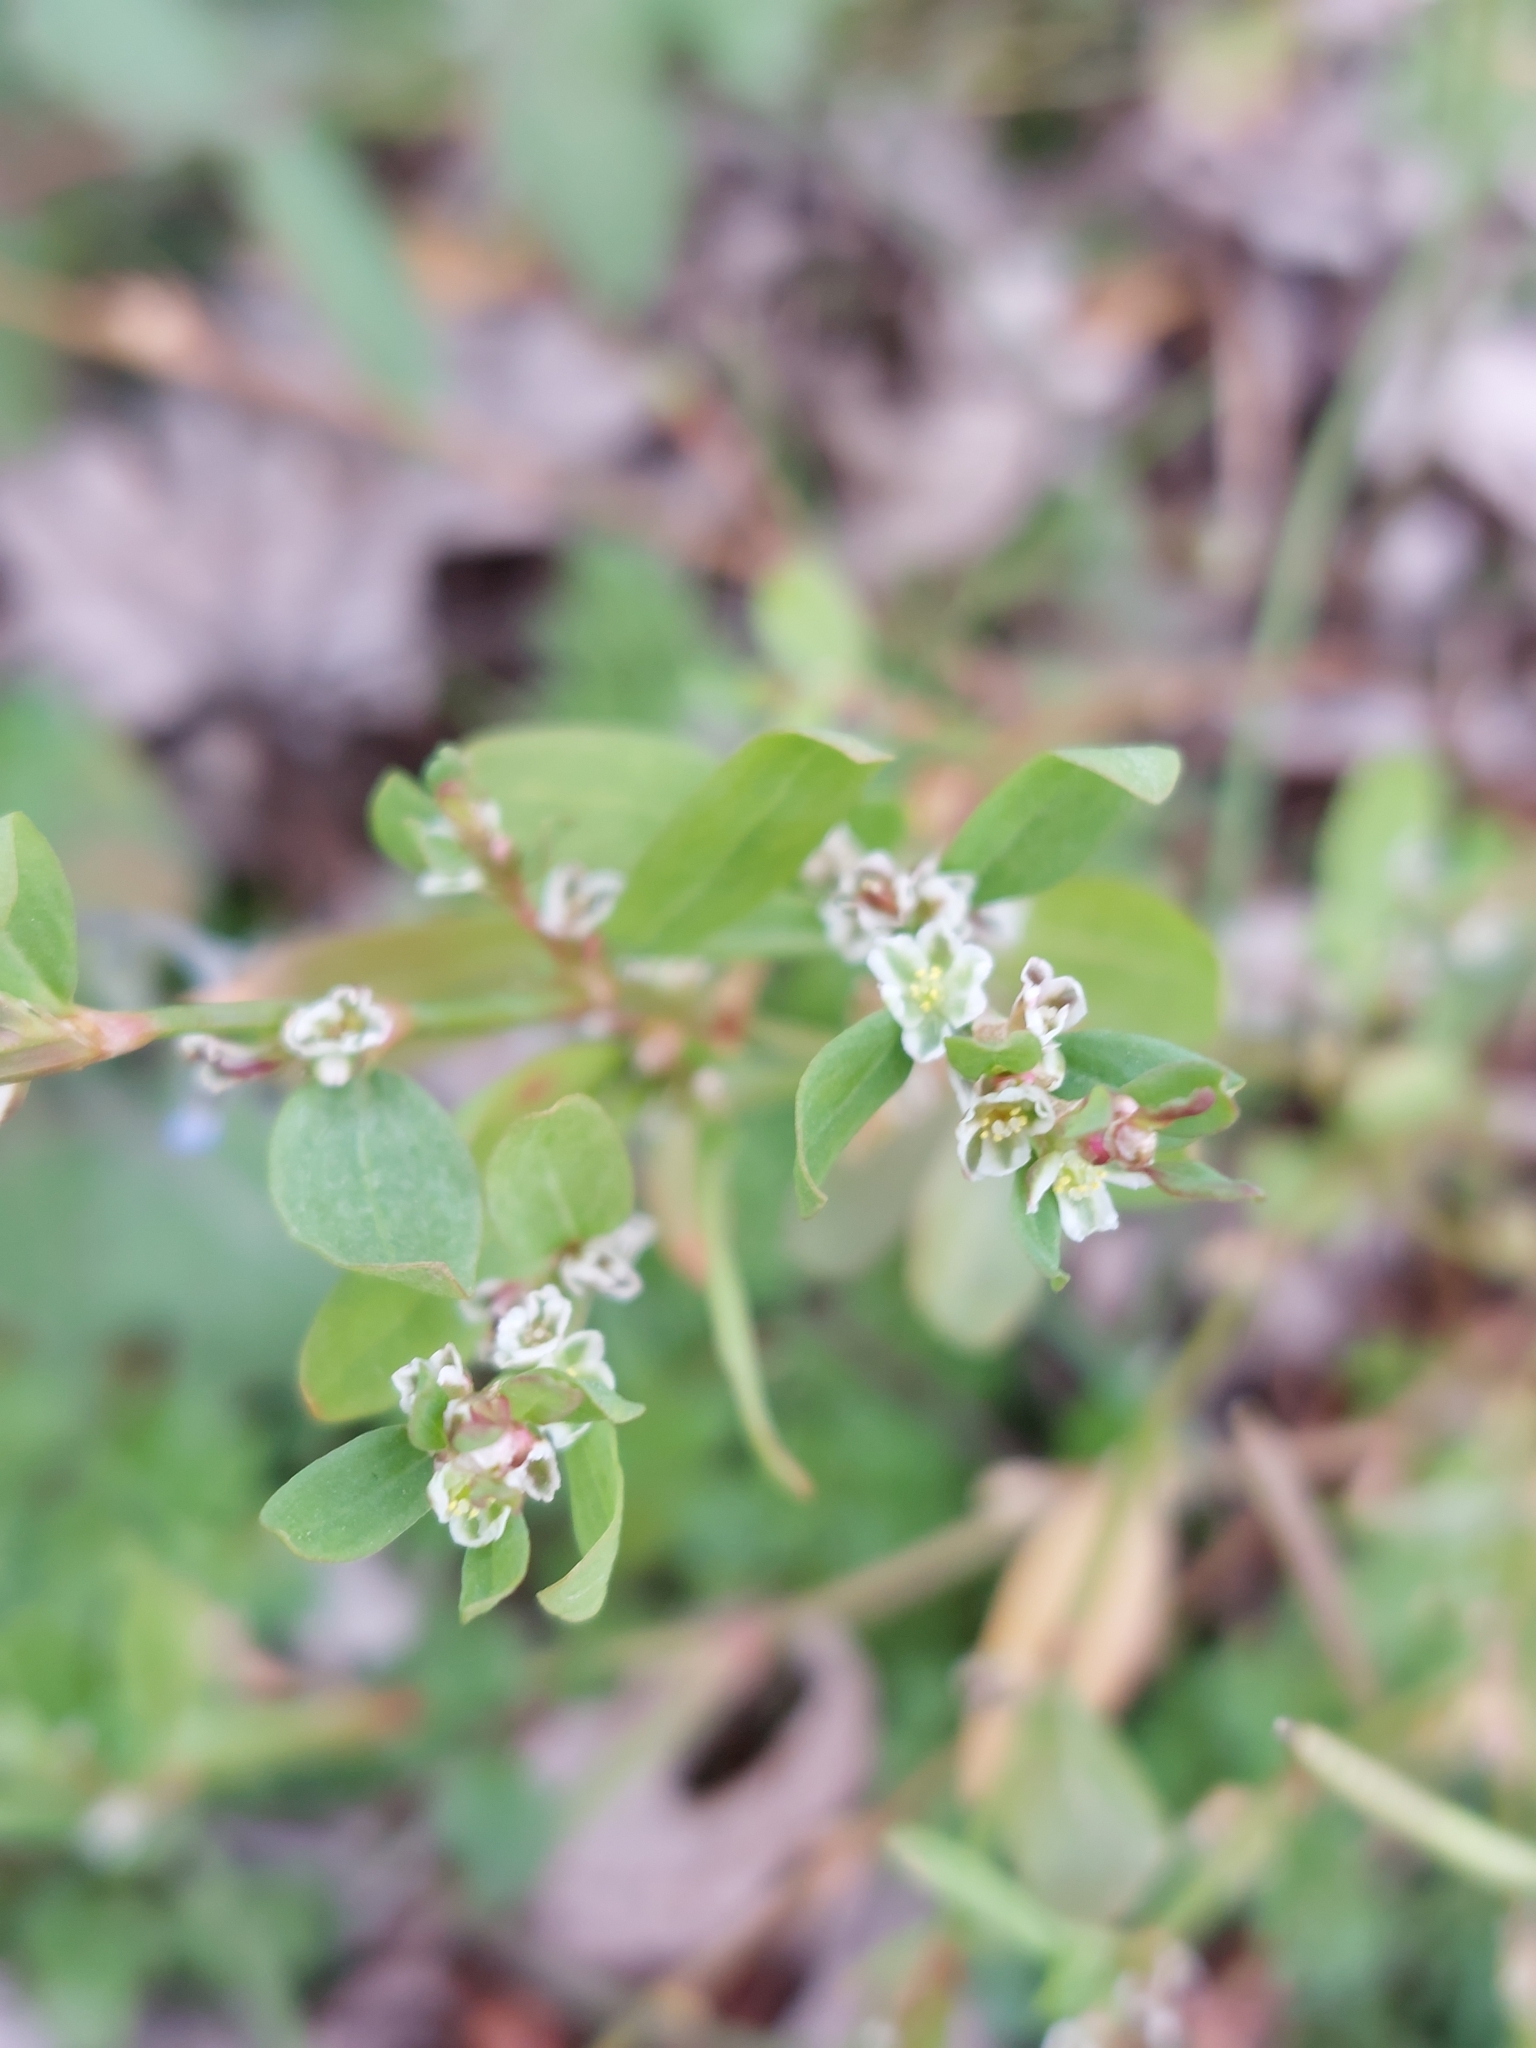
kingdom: Plantae
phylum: Tracheophyta
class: Magnoliopsida
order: Caryophyllales
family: Polygonaceae
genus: Polygonum
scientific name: Polygonum aviculare
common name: Prostrate knotweed
